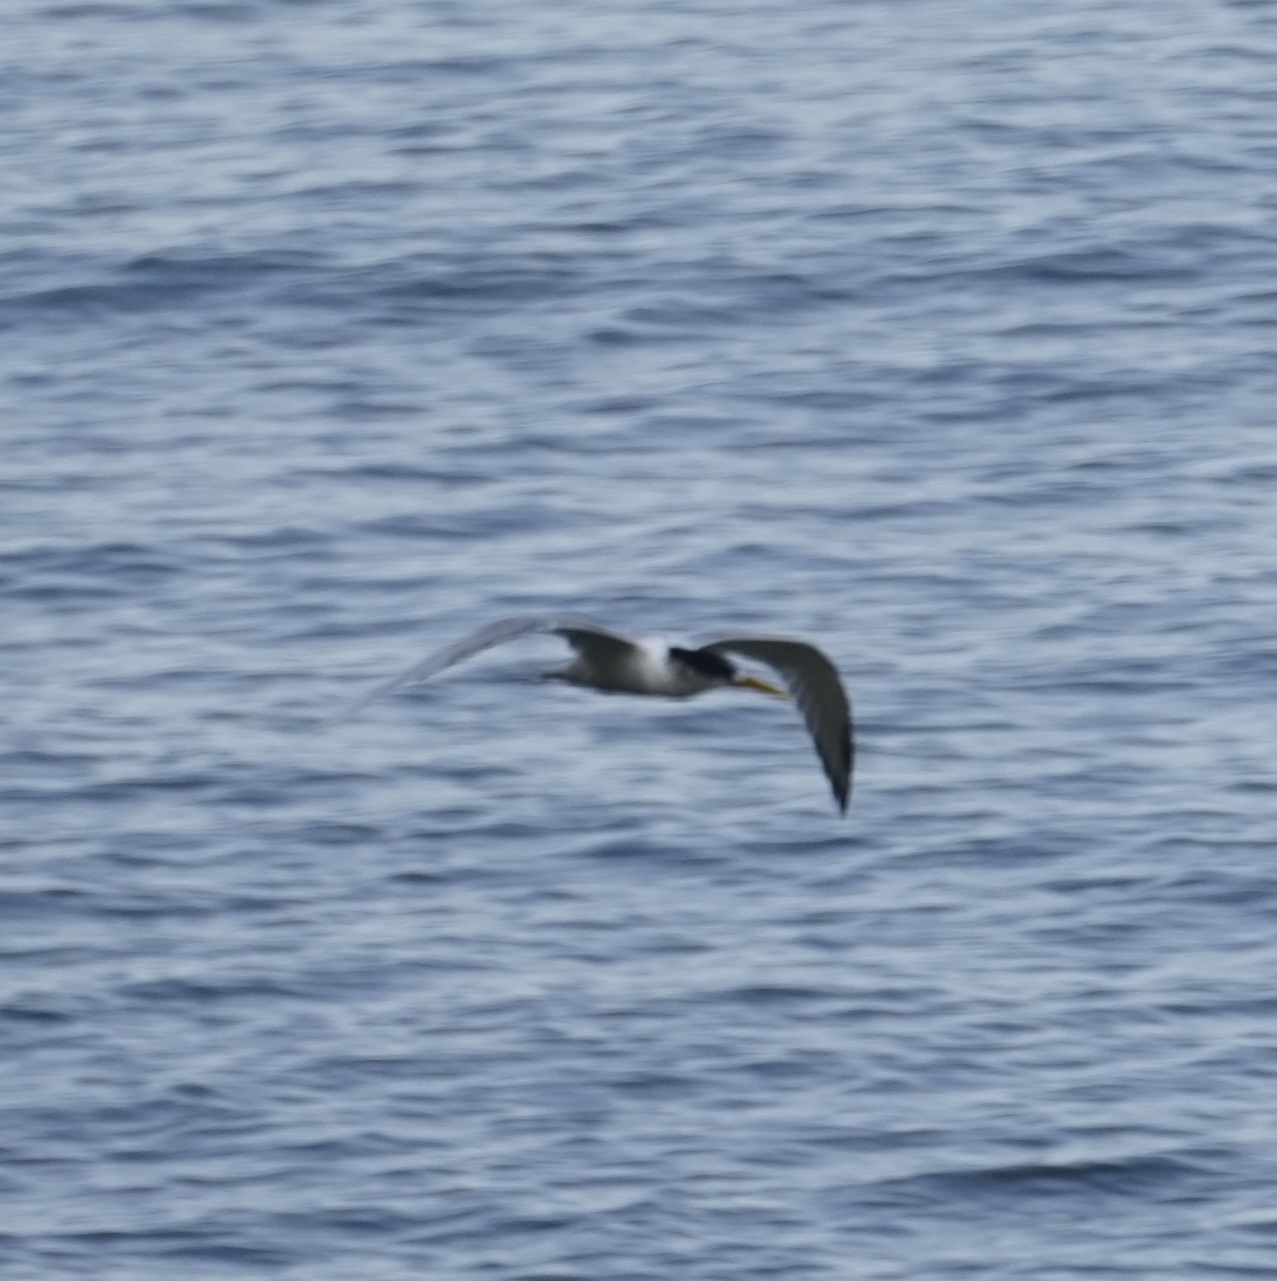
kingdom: Animalia
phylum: Chordata
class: Aves
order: Charadriiformes
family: Laridae
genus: Thalasseus
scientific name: Thalasseus bergii
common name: Greater crested tern
